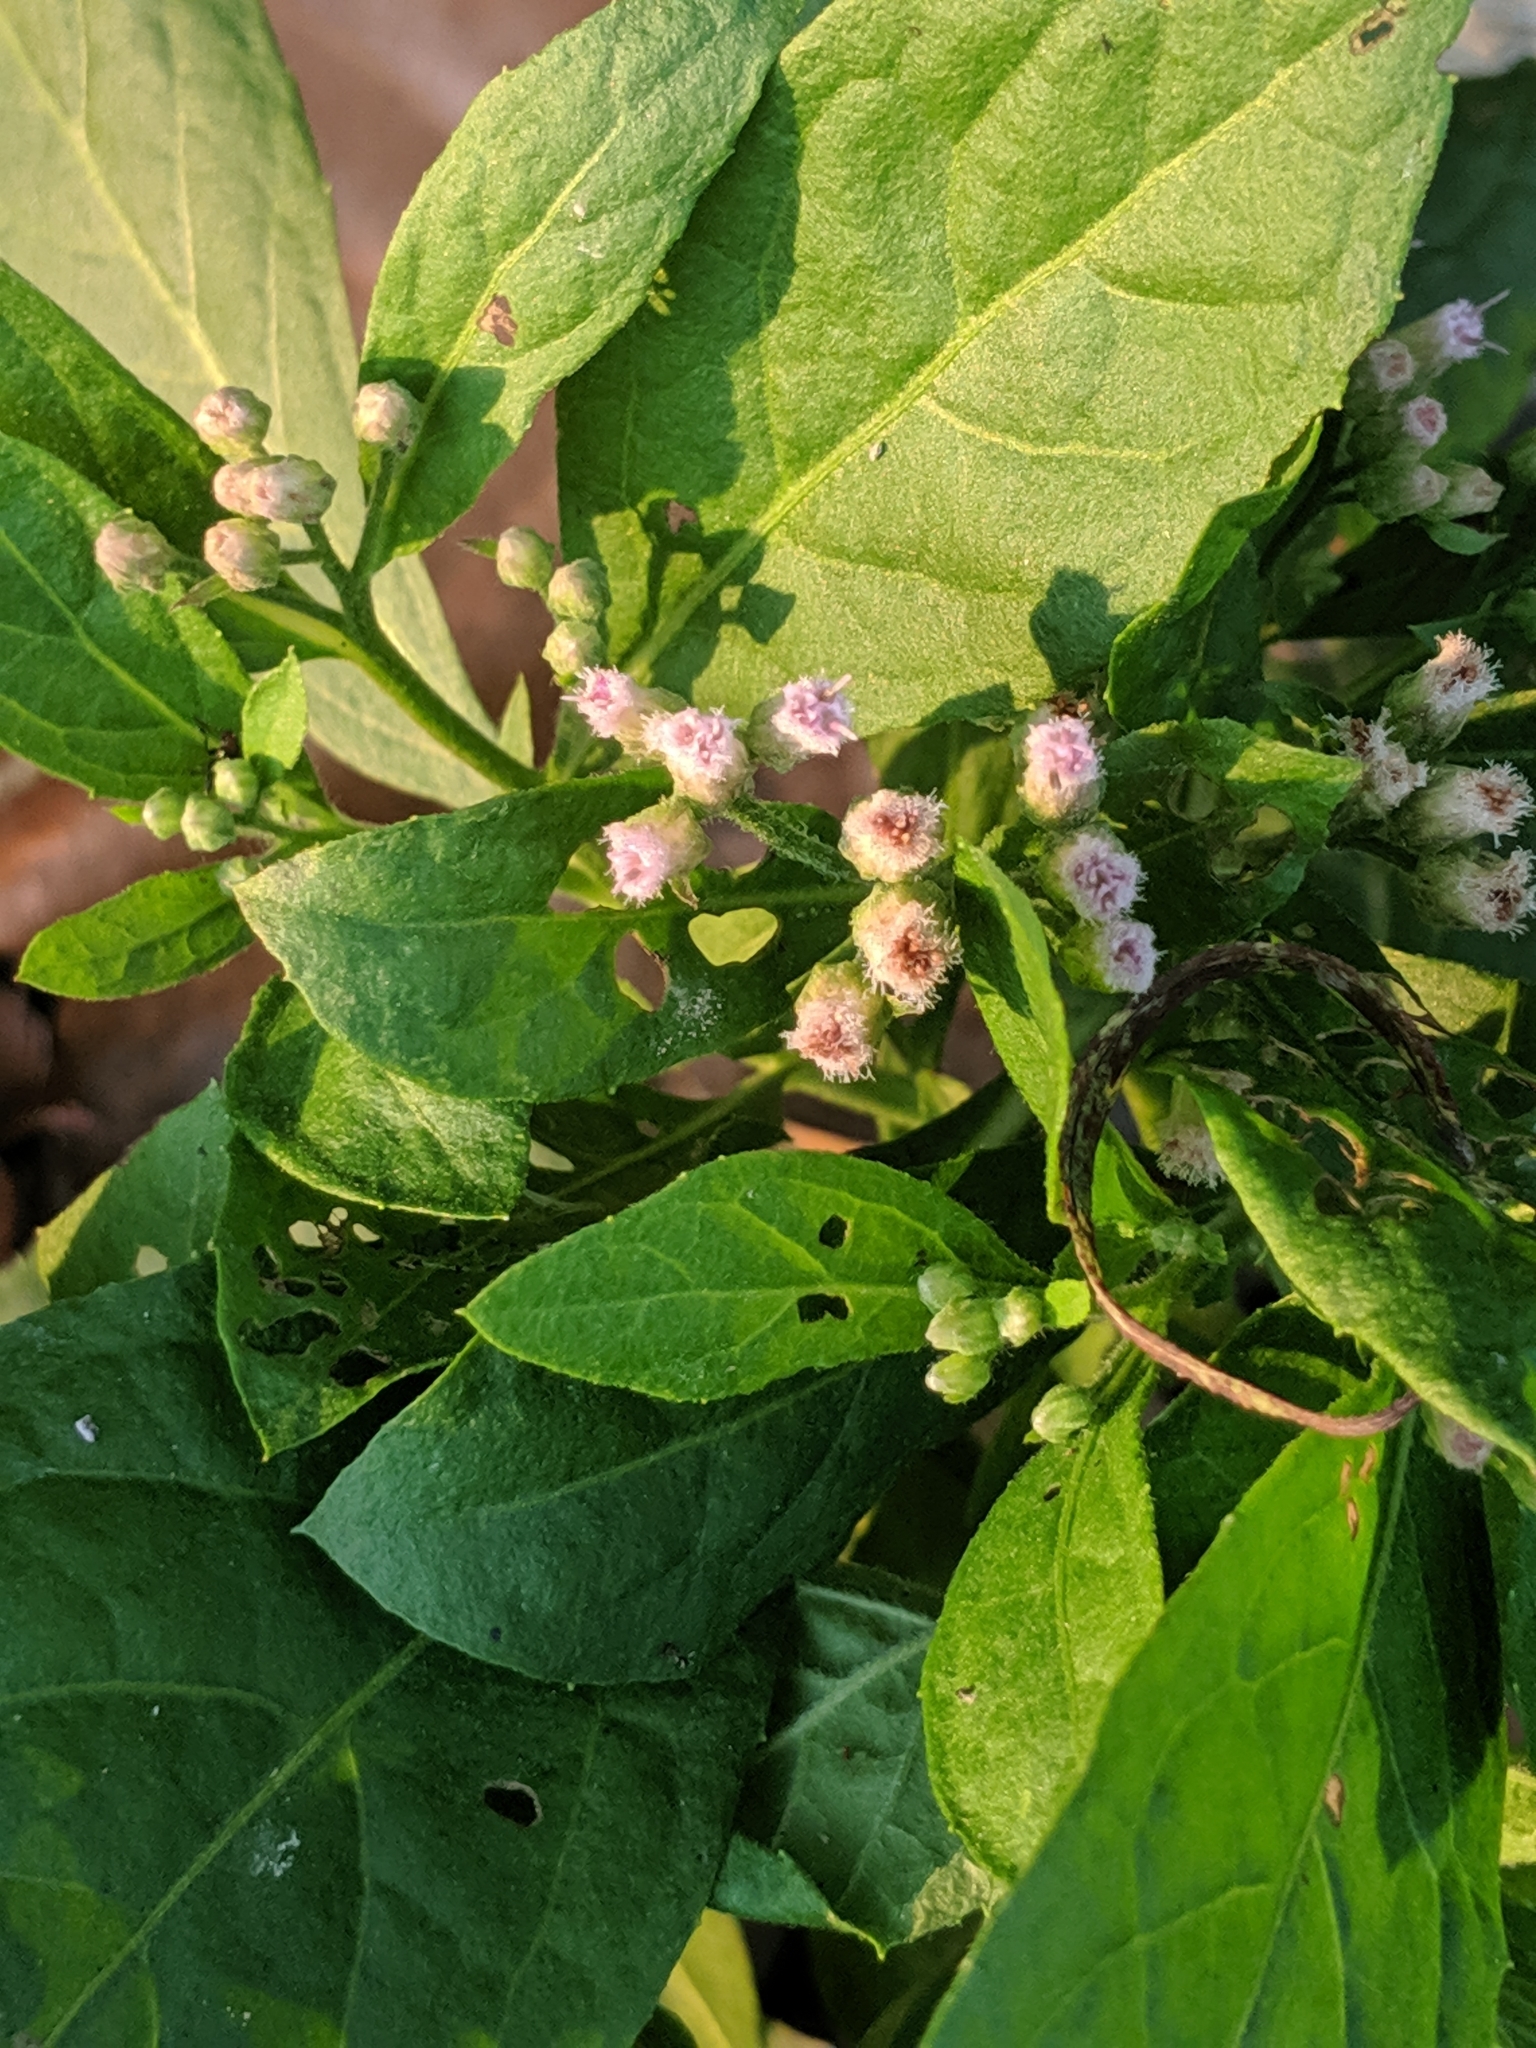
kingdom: Plantae
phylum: Tracheophyta
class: Magnoliopsida
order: Asterales
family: Asteraceae
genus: Pluchea
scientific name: Pluchea camphorata
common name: Camphor pluchea
